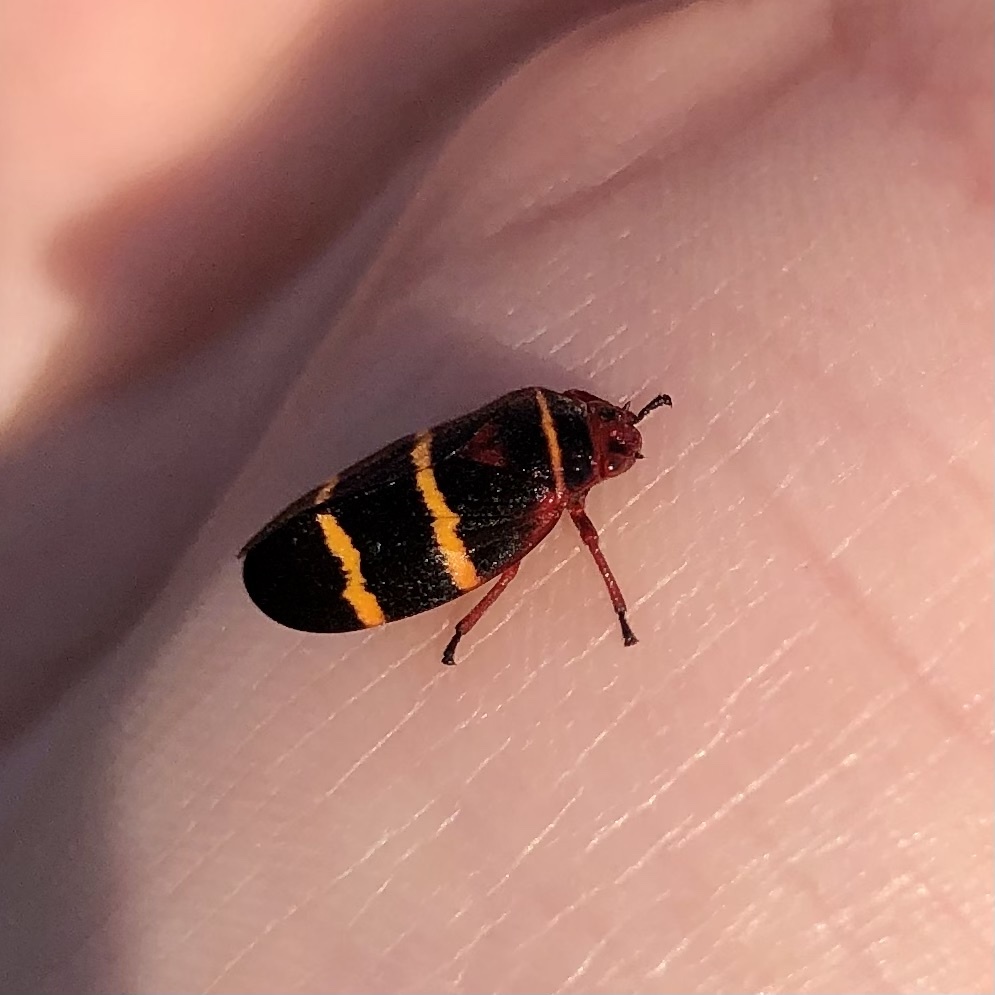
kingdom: Animalia
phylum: Arthropoda
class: Insecta
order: Hemiptera
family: Cercopidae
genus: Prosapia
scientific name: Prosapia bicincta
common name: Twolined spittlebug
